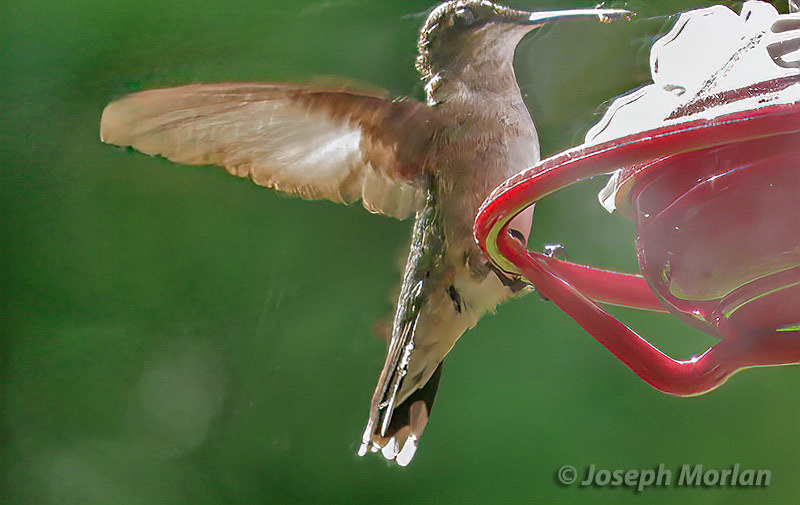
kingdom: Animalia
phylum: Chordata
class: Aves
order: Apodiformes
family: Trochilidae
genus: Archilochus
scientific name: Archilochus colubris
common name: Ruby-throated hummingbird
